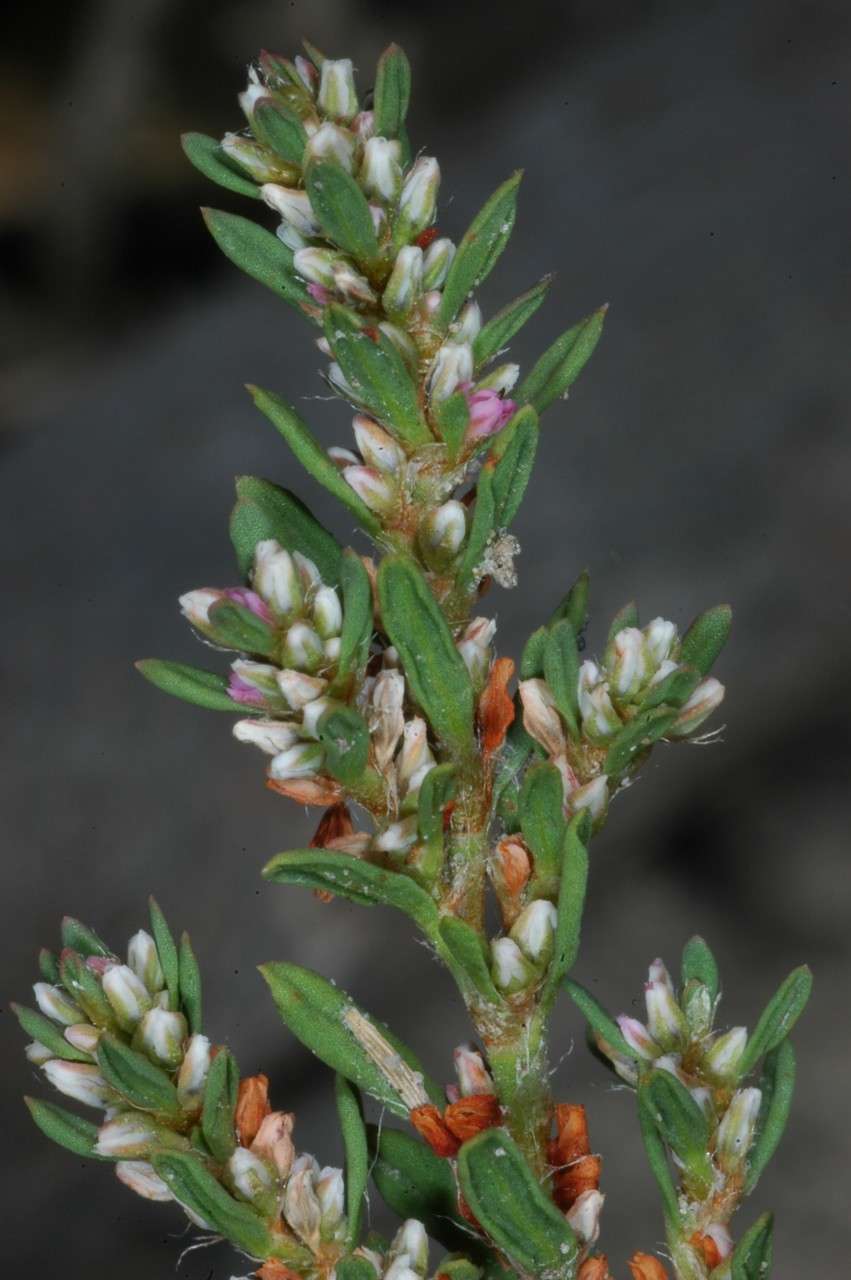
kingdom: Plantae
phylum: Tracheophyta
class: Magnoliopsida
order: Caryophyllales
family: Polygonaceae
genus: Polygonum
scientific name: Polygonum plebeium
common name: Common knotweed
